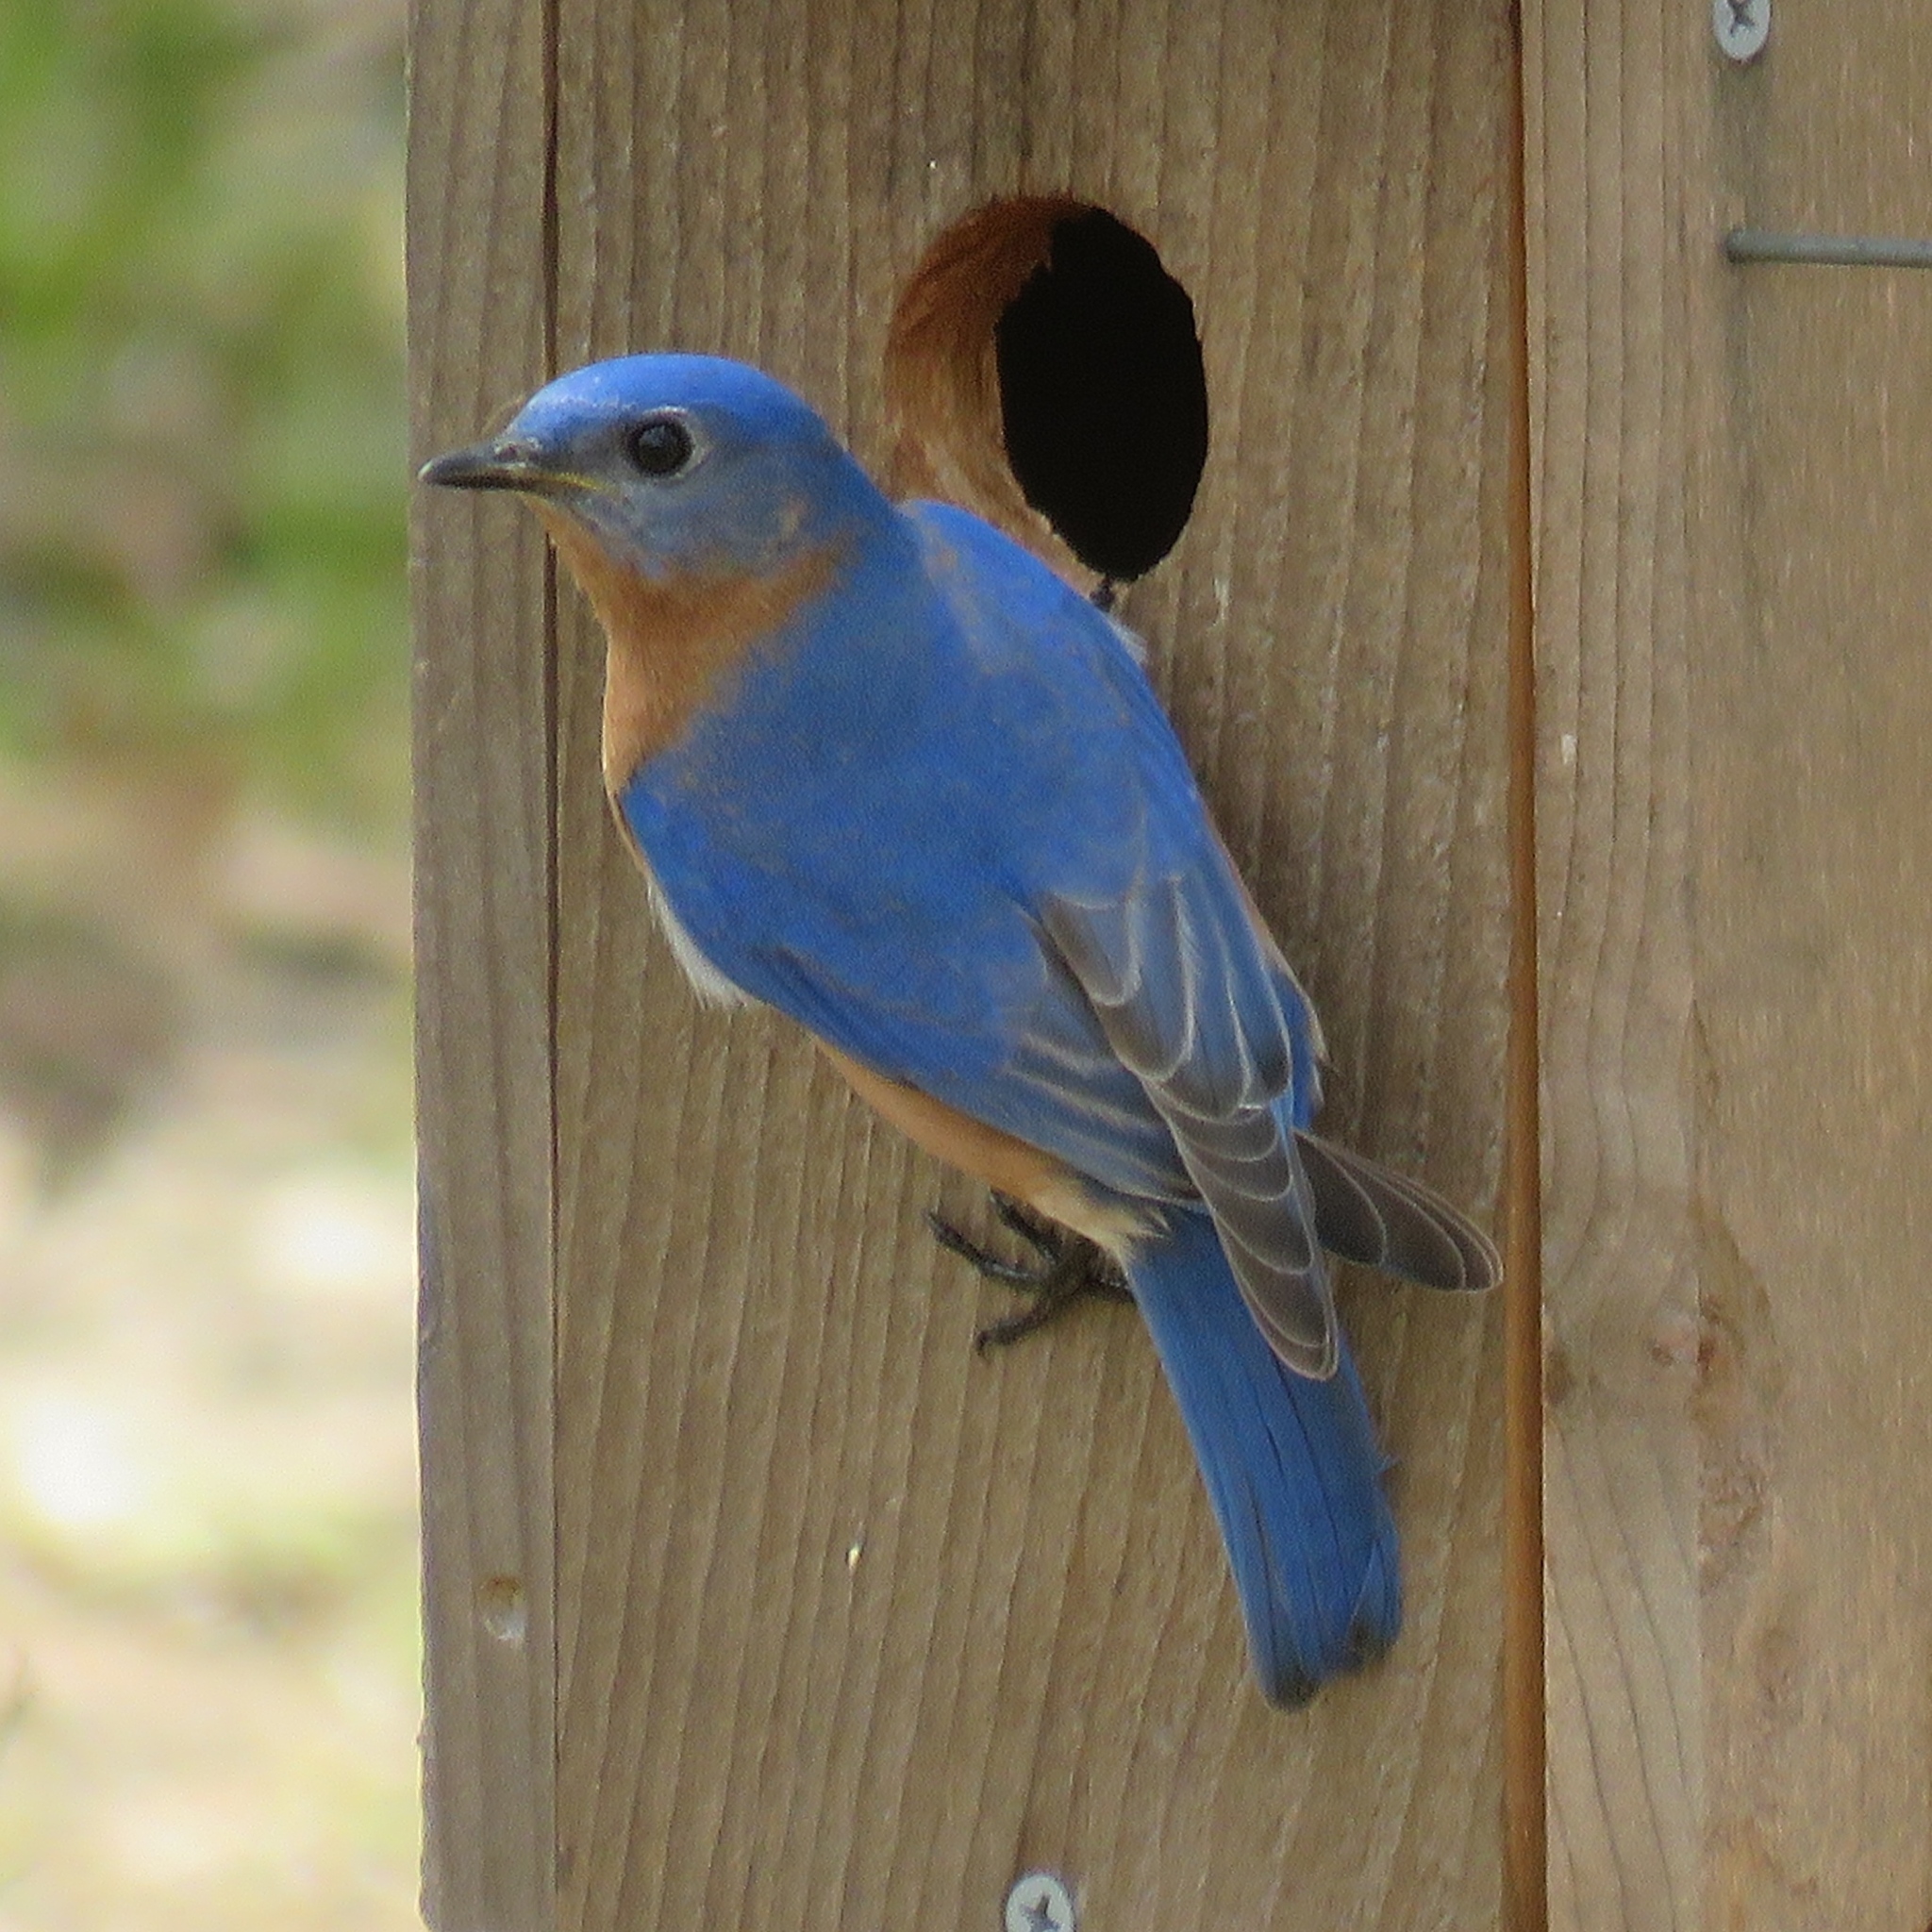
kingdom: Animalia
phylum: Chordata
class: Aves
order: Passeriformes
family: Turdidae
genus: Sialia
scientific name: Sialia sialis
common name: Eastern bluebird
